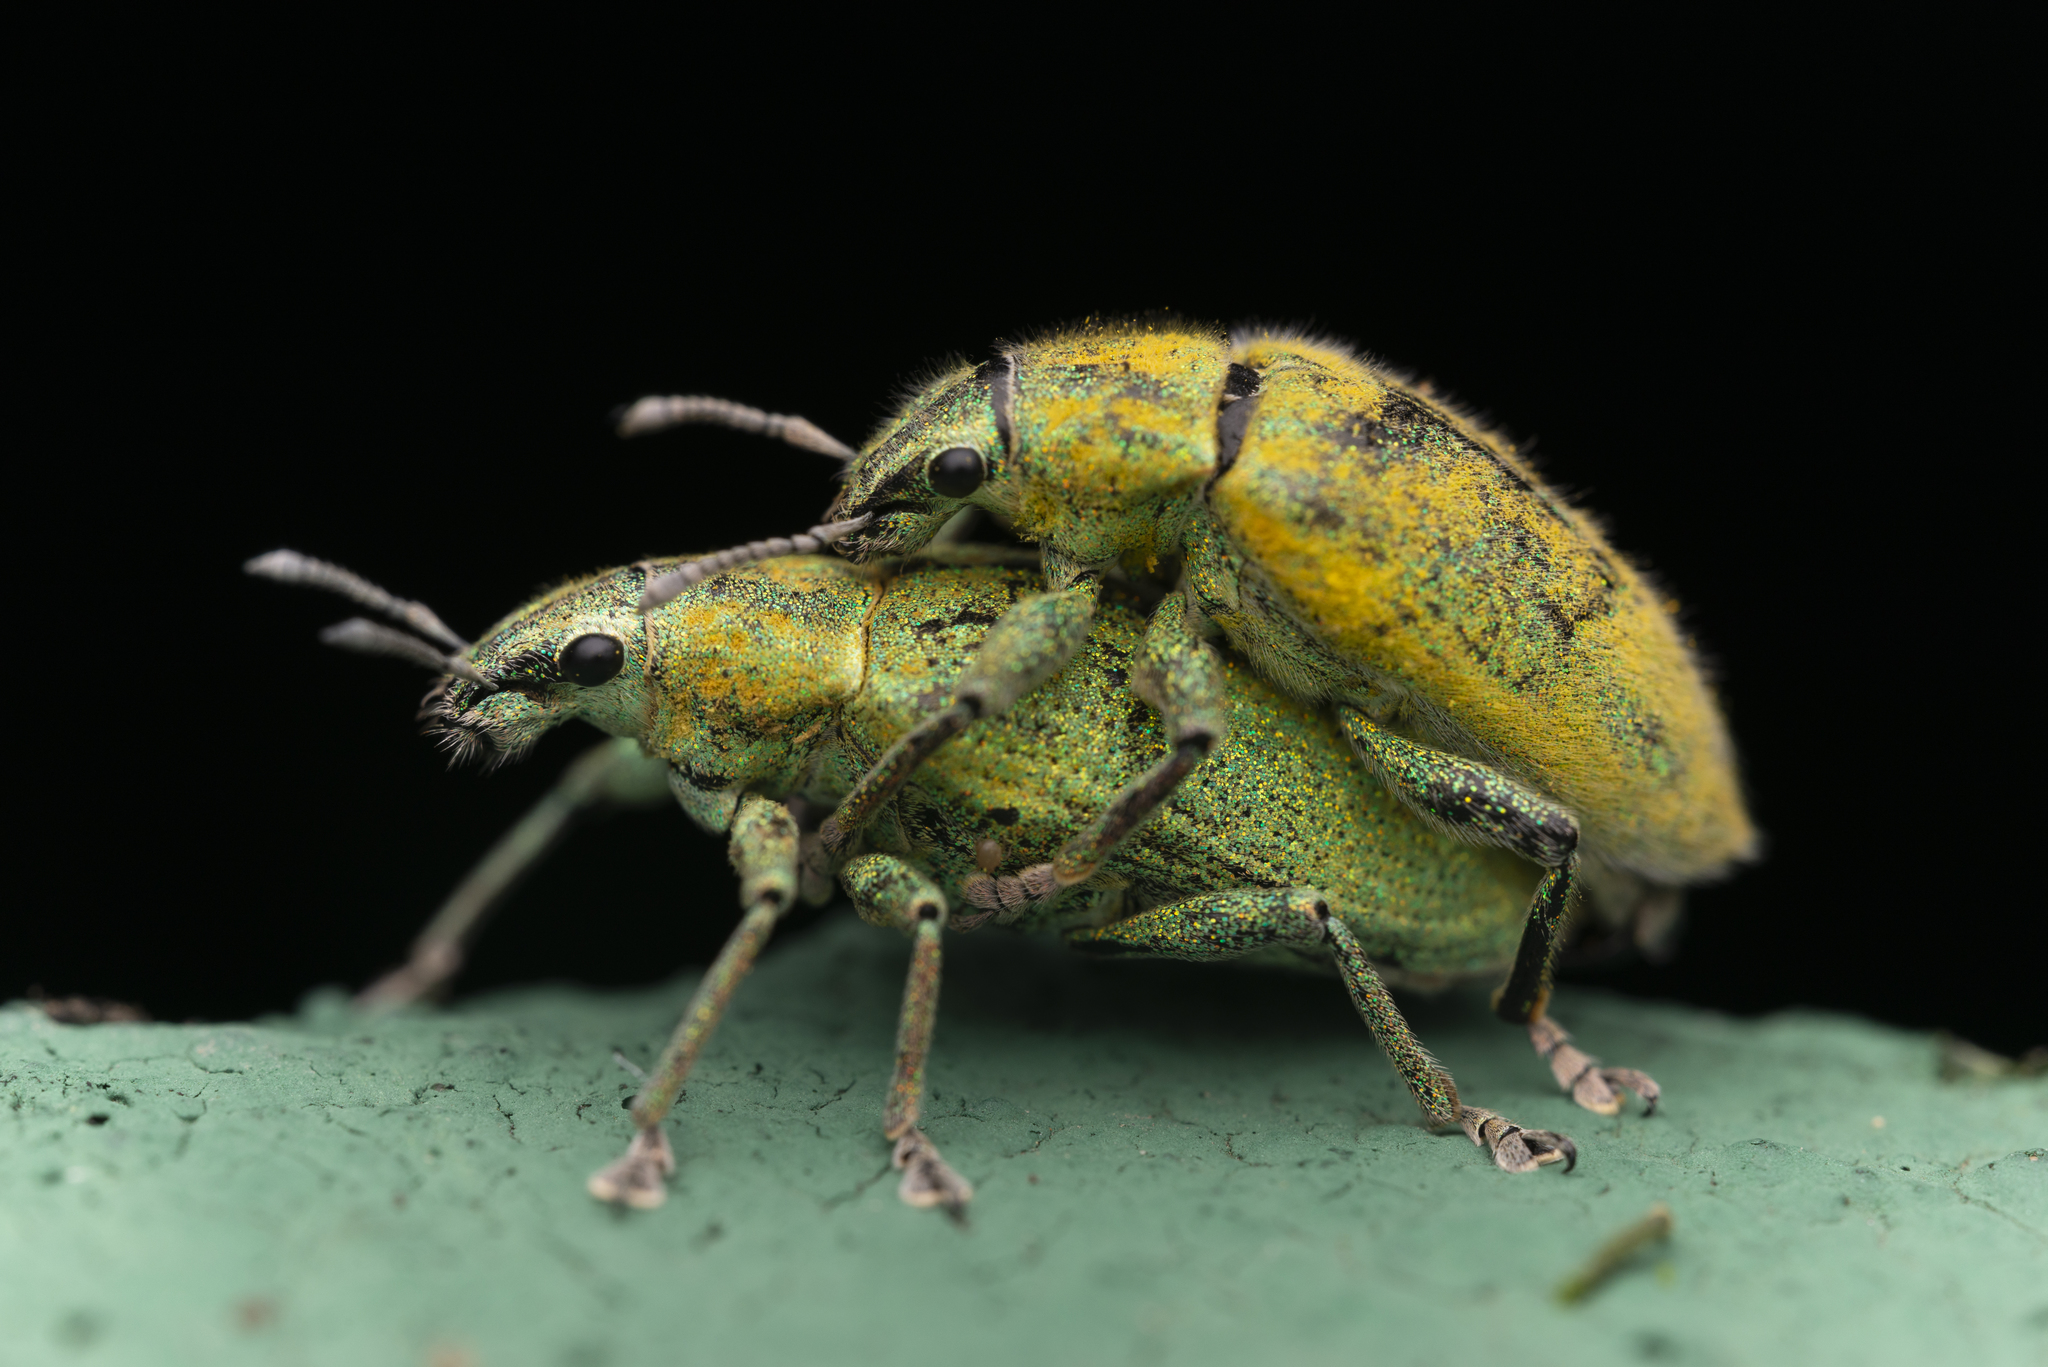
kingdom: Animalia
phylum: Arthropoda
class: Insecta
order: Coleoptera
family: Curculionidae
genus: Hypomeces
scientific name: Hypomeces pulviger
